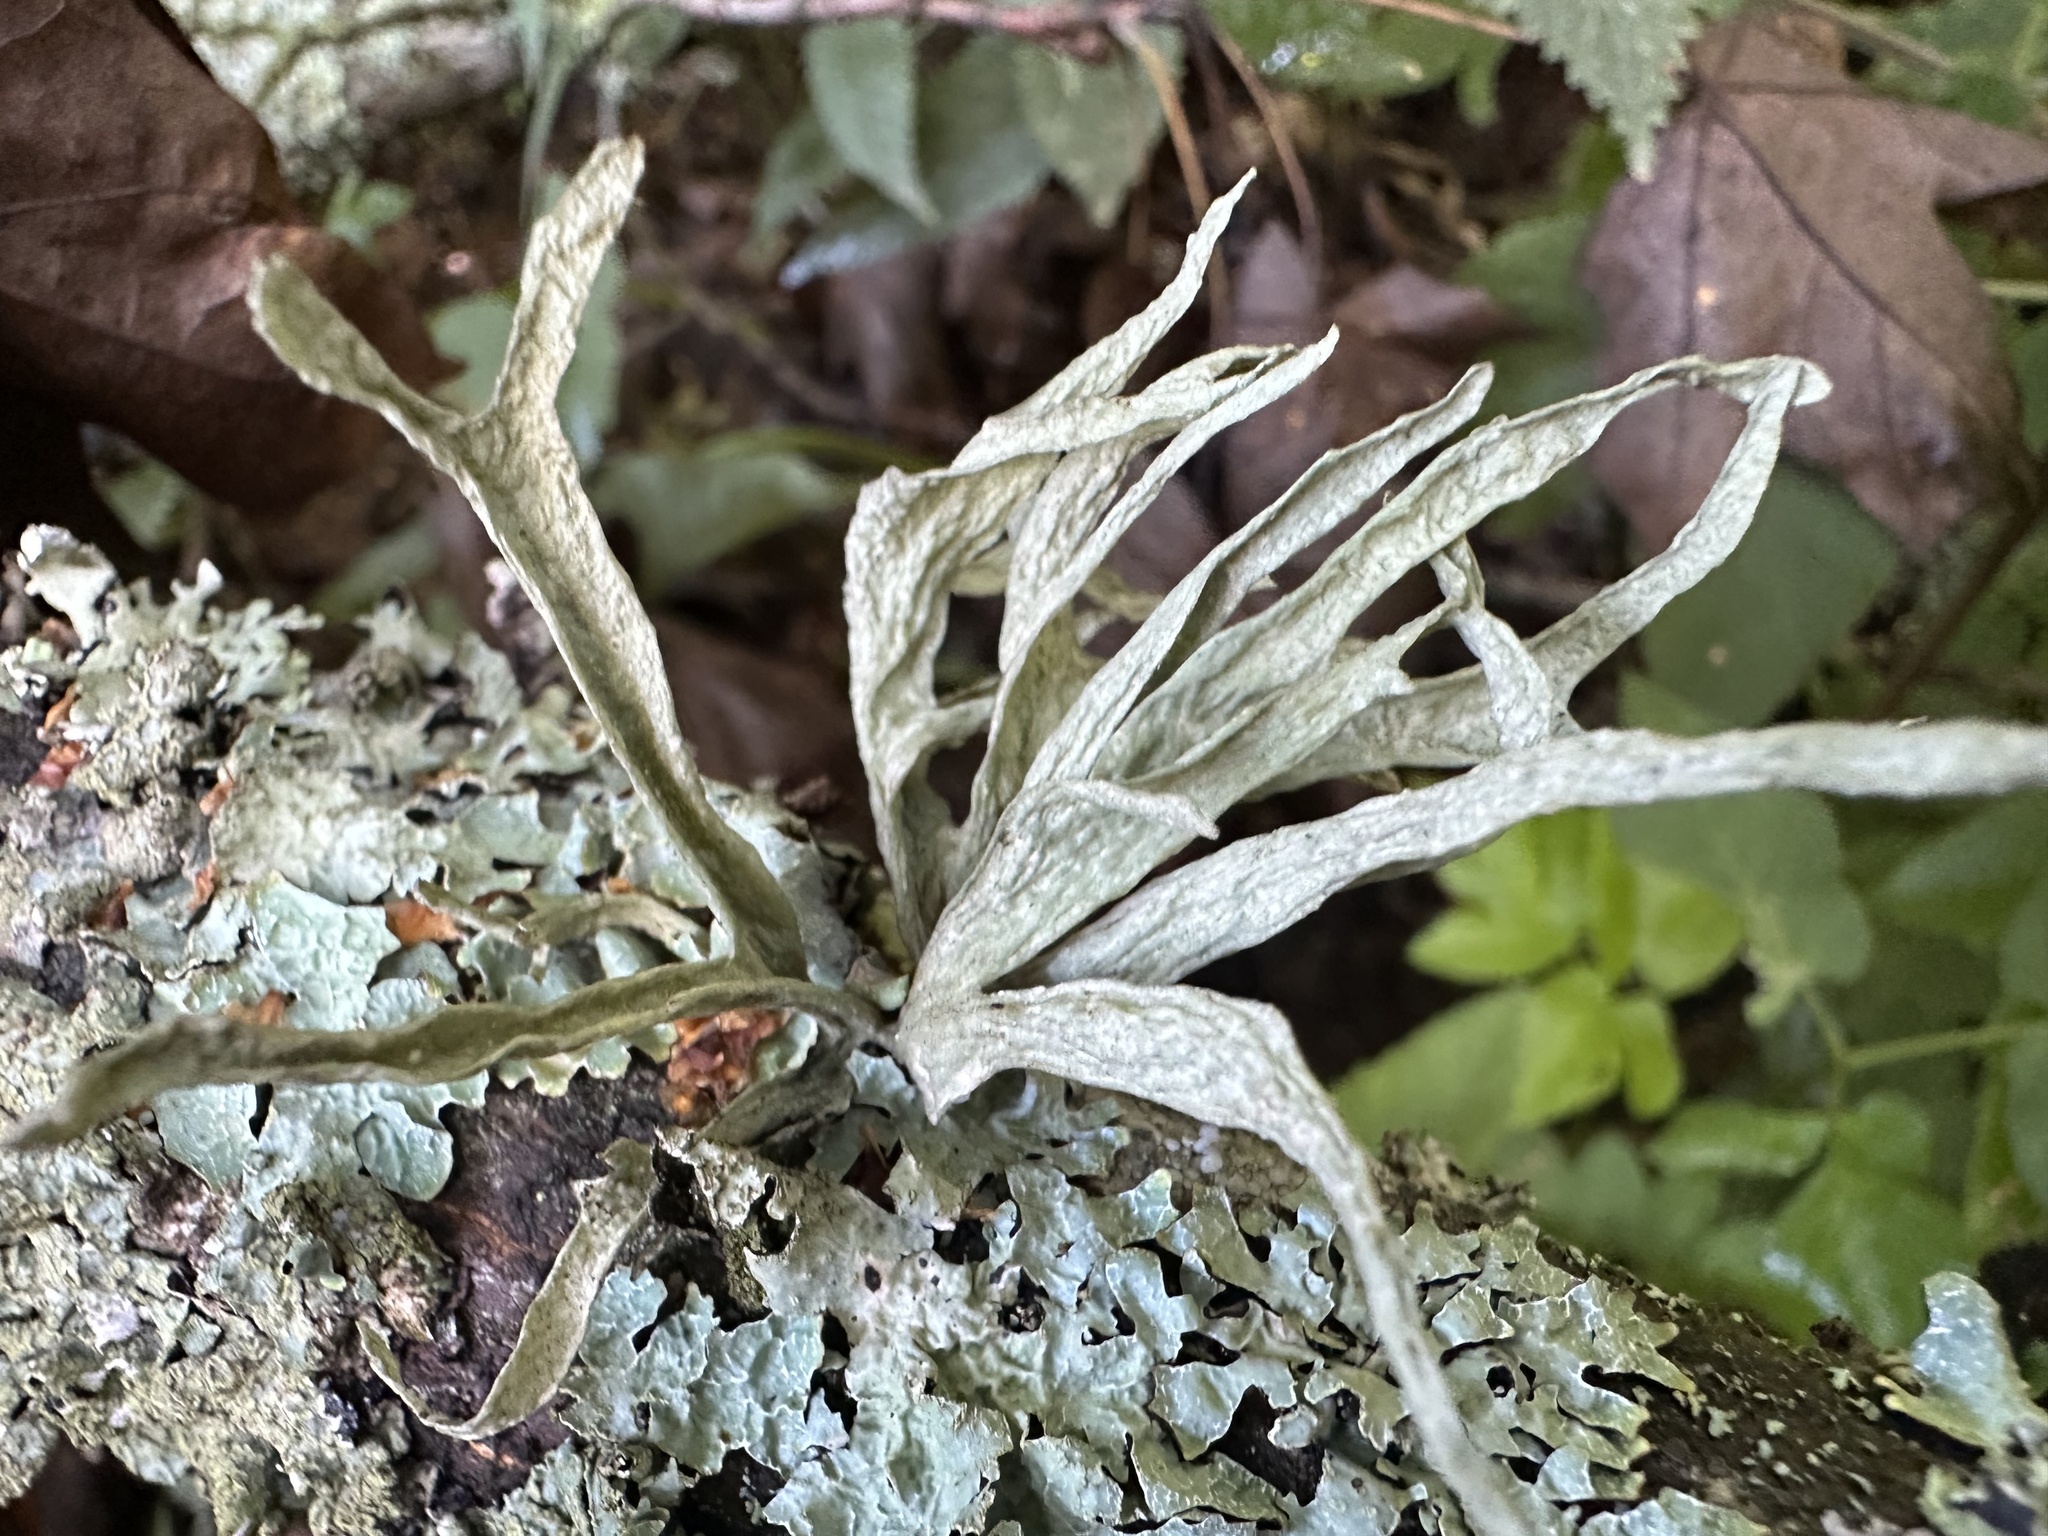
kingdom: Fungi
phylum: Ascomycota
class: Lecanoromycetes
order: Lecanorales
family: Ramalinaceae
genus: Ramalina
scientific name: Ramalina fraxinea
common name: Cartilage lichen
